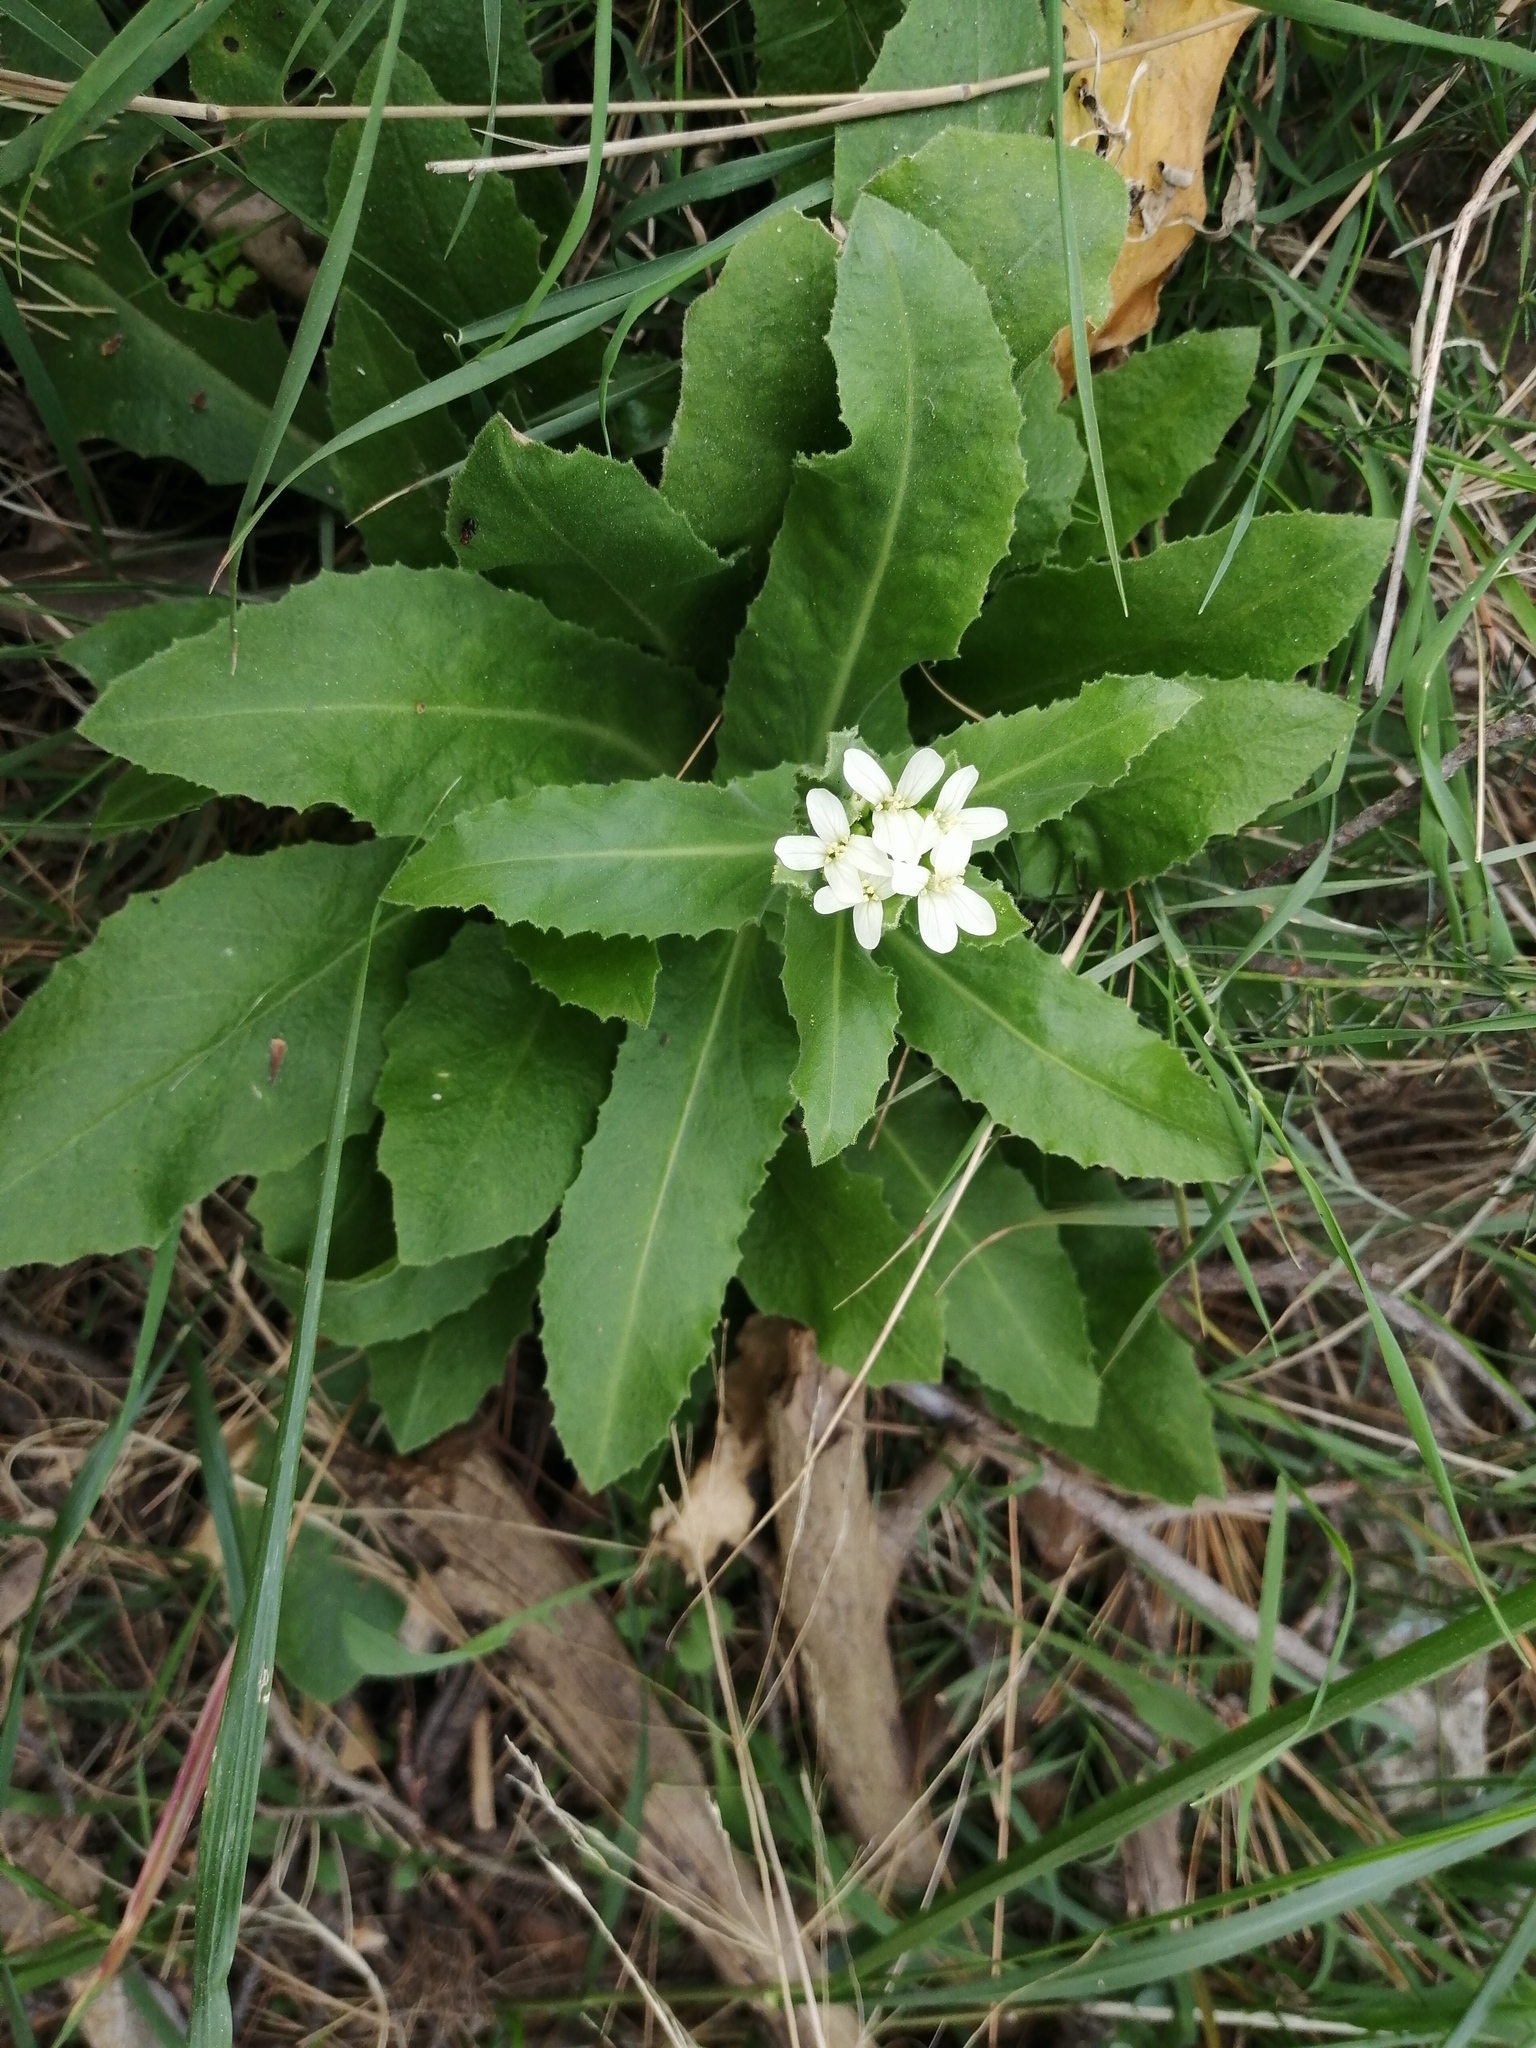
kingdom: Plantae
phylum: Tracheophyta
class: Magnoliopsida
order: Brassicales
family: Brassicaceae
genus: Pseudoturritis
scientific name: Pseudoturritis turrita
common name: Tower cress
